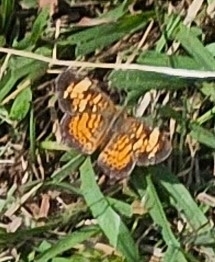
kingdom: Animalia
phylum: Arthropoda
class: Insecta
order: Lepidoptera
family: Nymphalidae
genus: Phyciodes
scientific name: Phyciodes tharos
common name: Pearl crescent
